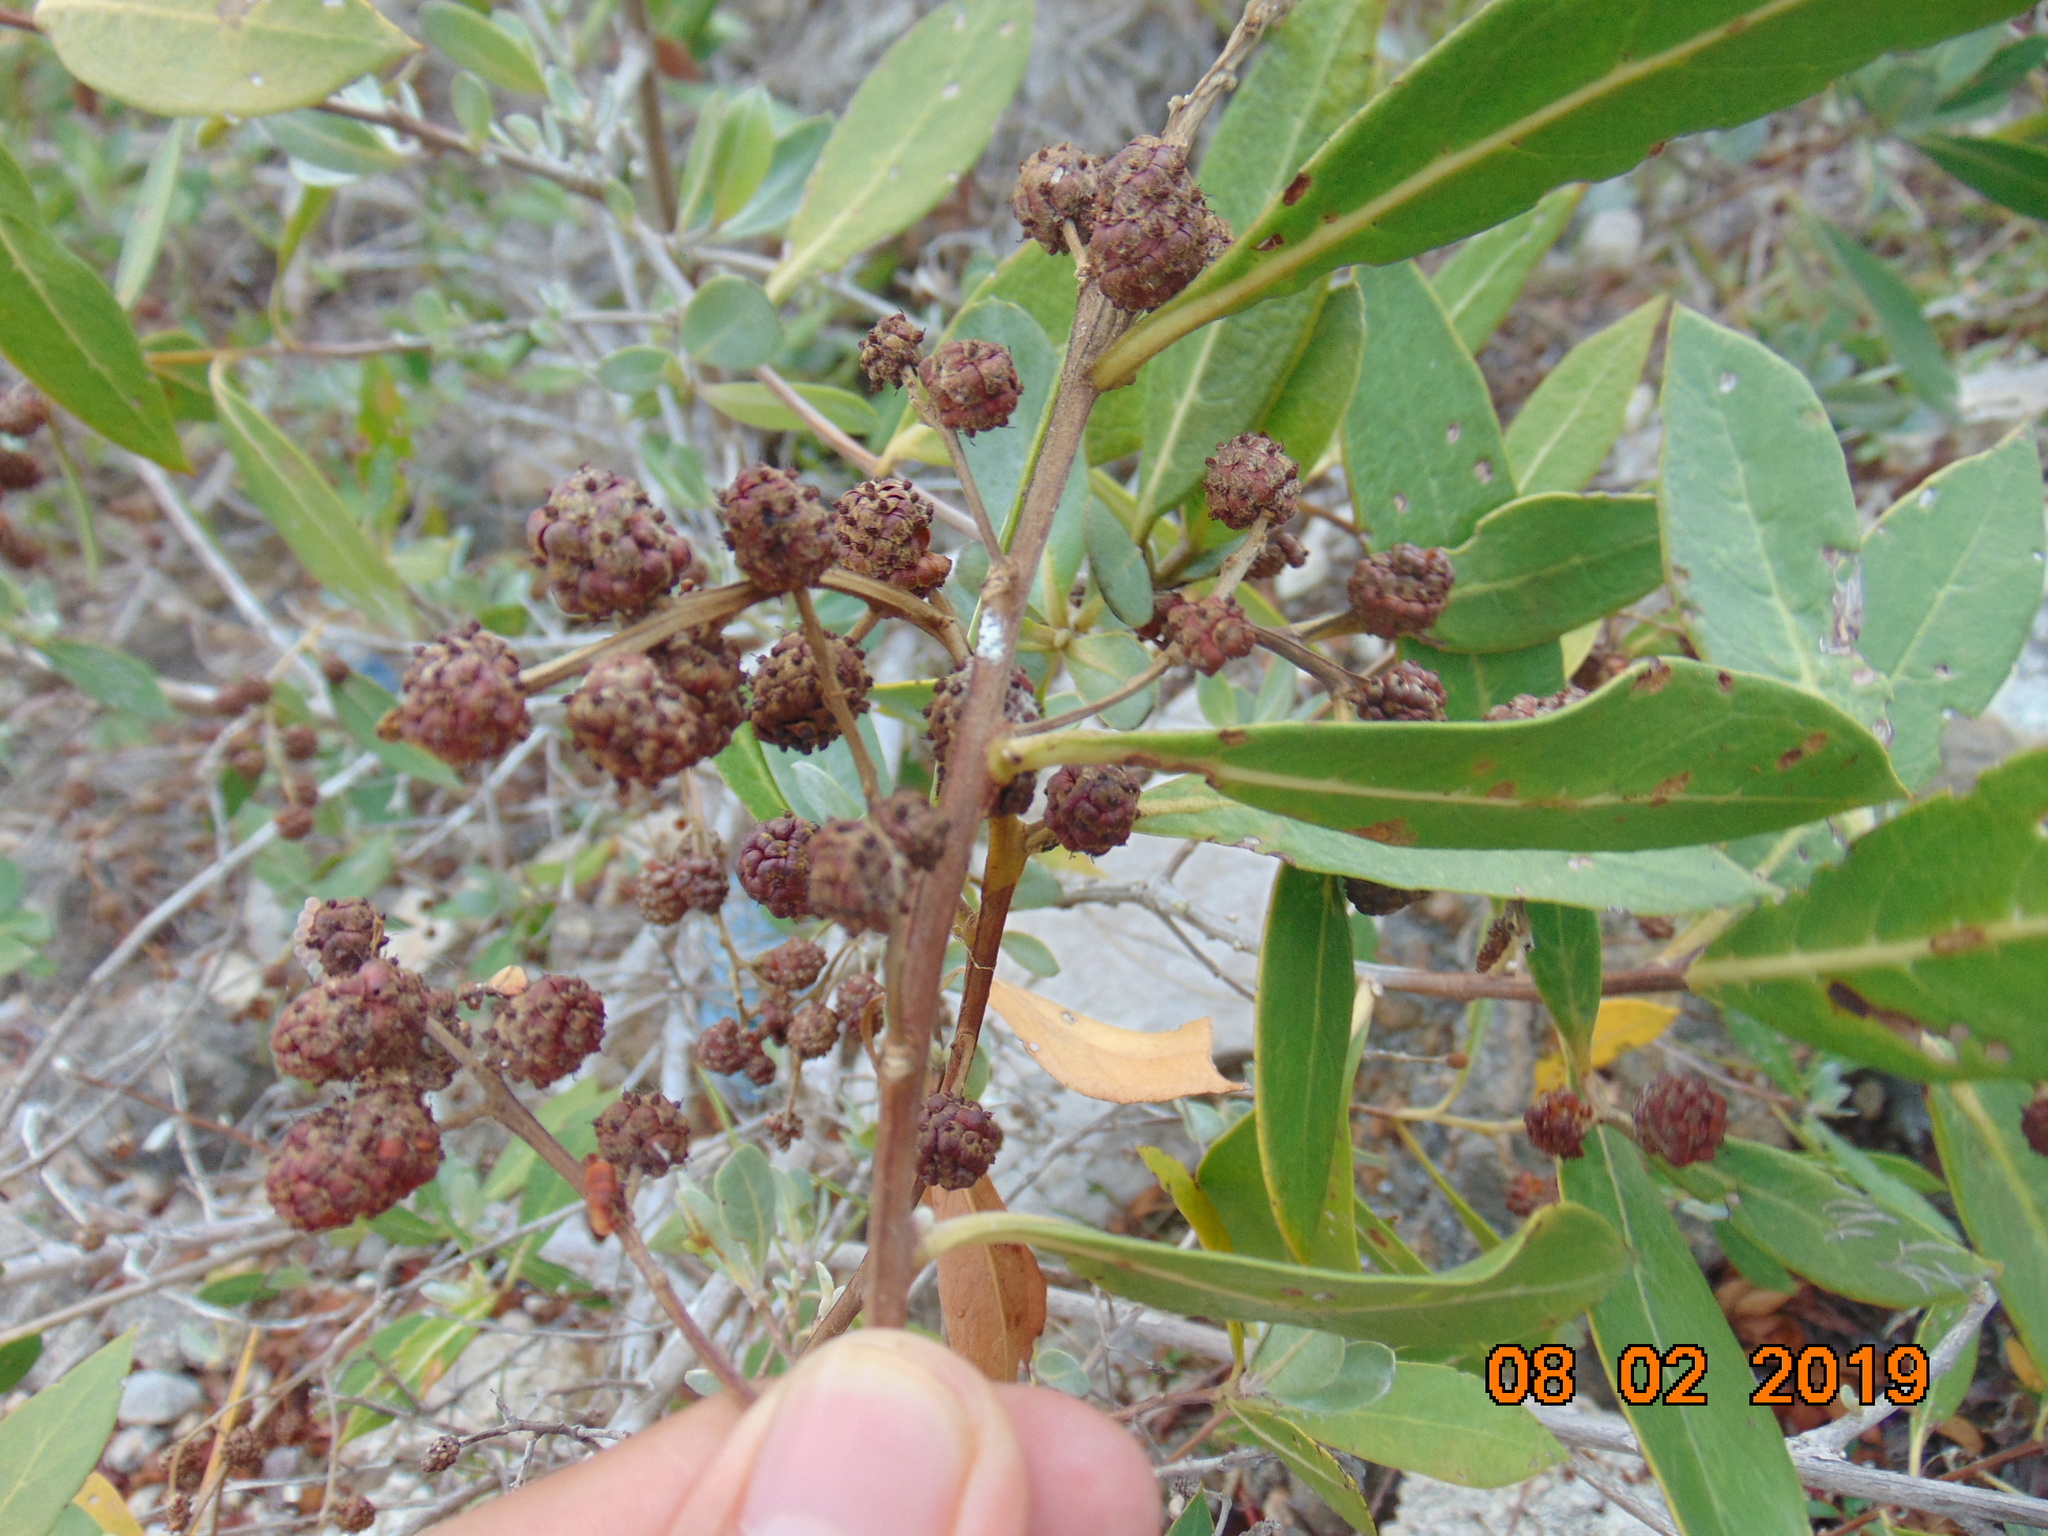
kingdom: Plantae
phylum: Tracheophyta
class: Magnoliopsida
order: Myrtales
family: Combretaceae
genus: Conocarpus
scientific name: Conocarpus erectus
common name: Button mangrove
